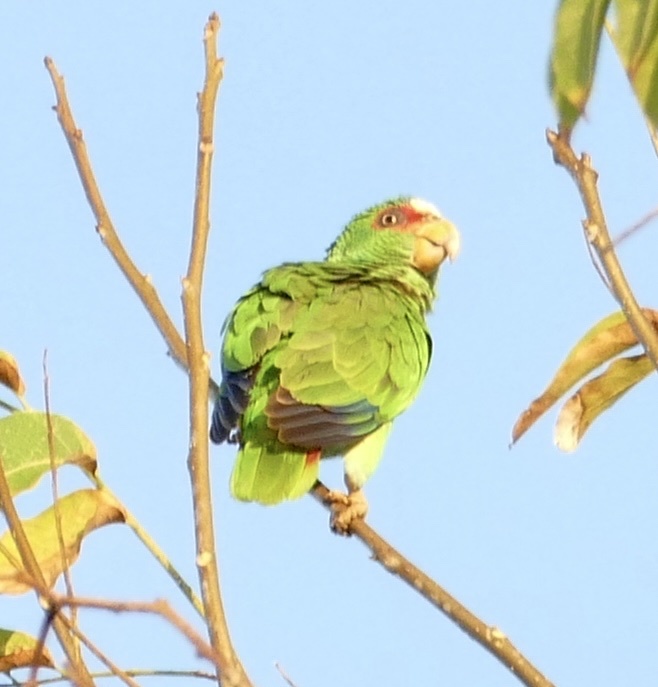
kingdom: Animalia
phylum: Chordata
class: Aves
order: Psittaciformes
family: Psittacidae
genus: Amazona
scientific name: Amazona albifrons
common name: White-fronted amazon
